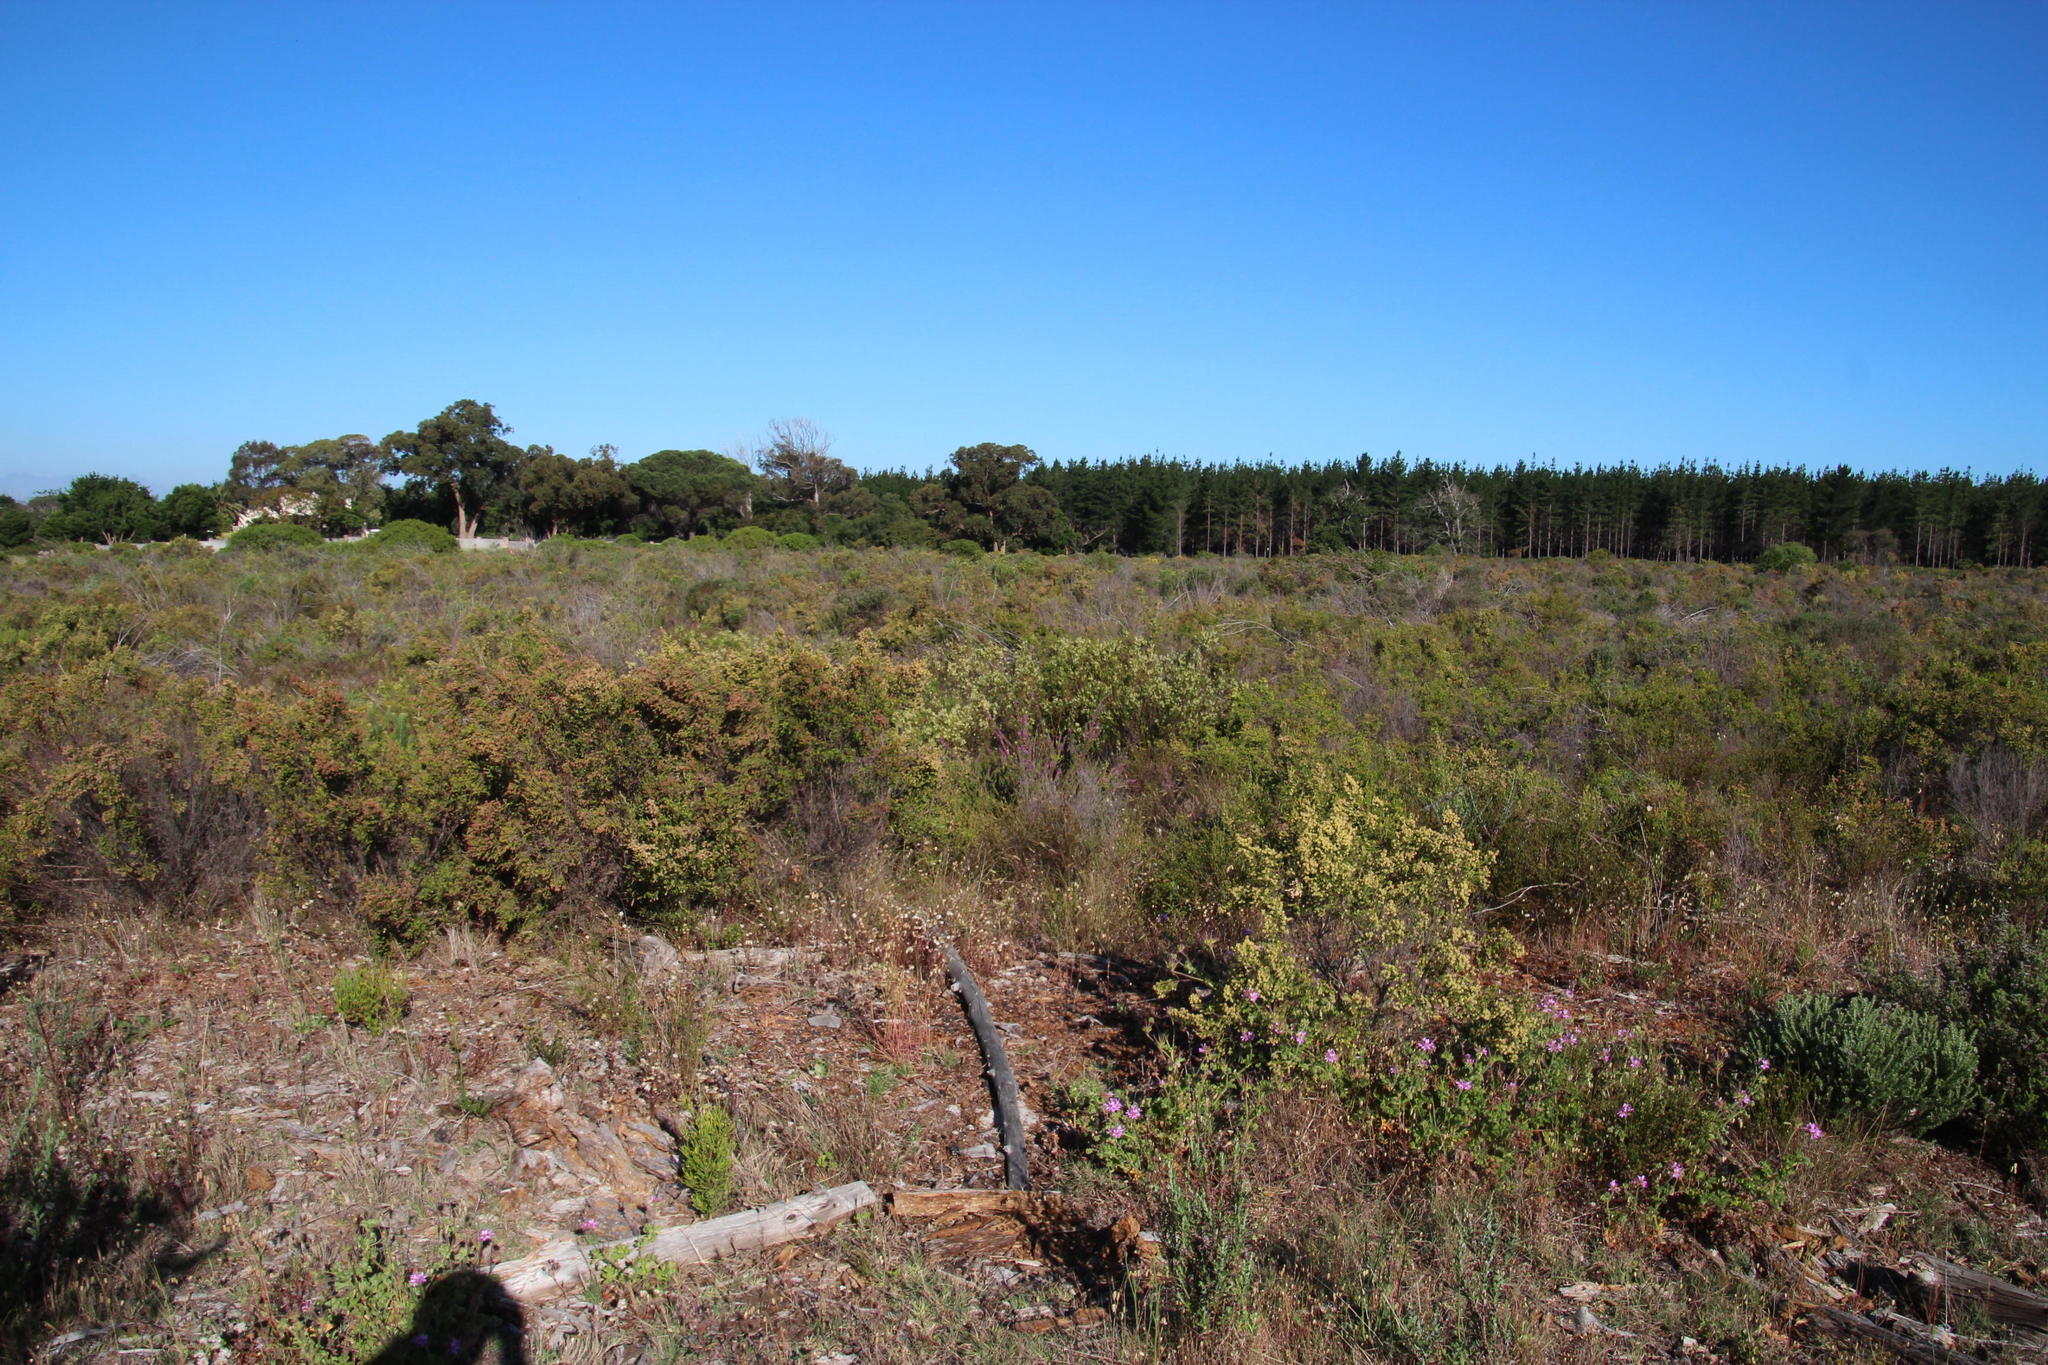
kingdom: Plantae
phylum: Tracheophyta
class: Magnoliopsida
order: Malvales
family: Thymelaeaceae
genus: Struthiola
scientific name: Struthiola striata
